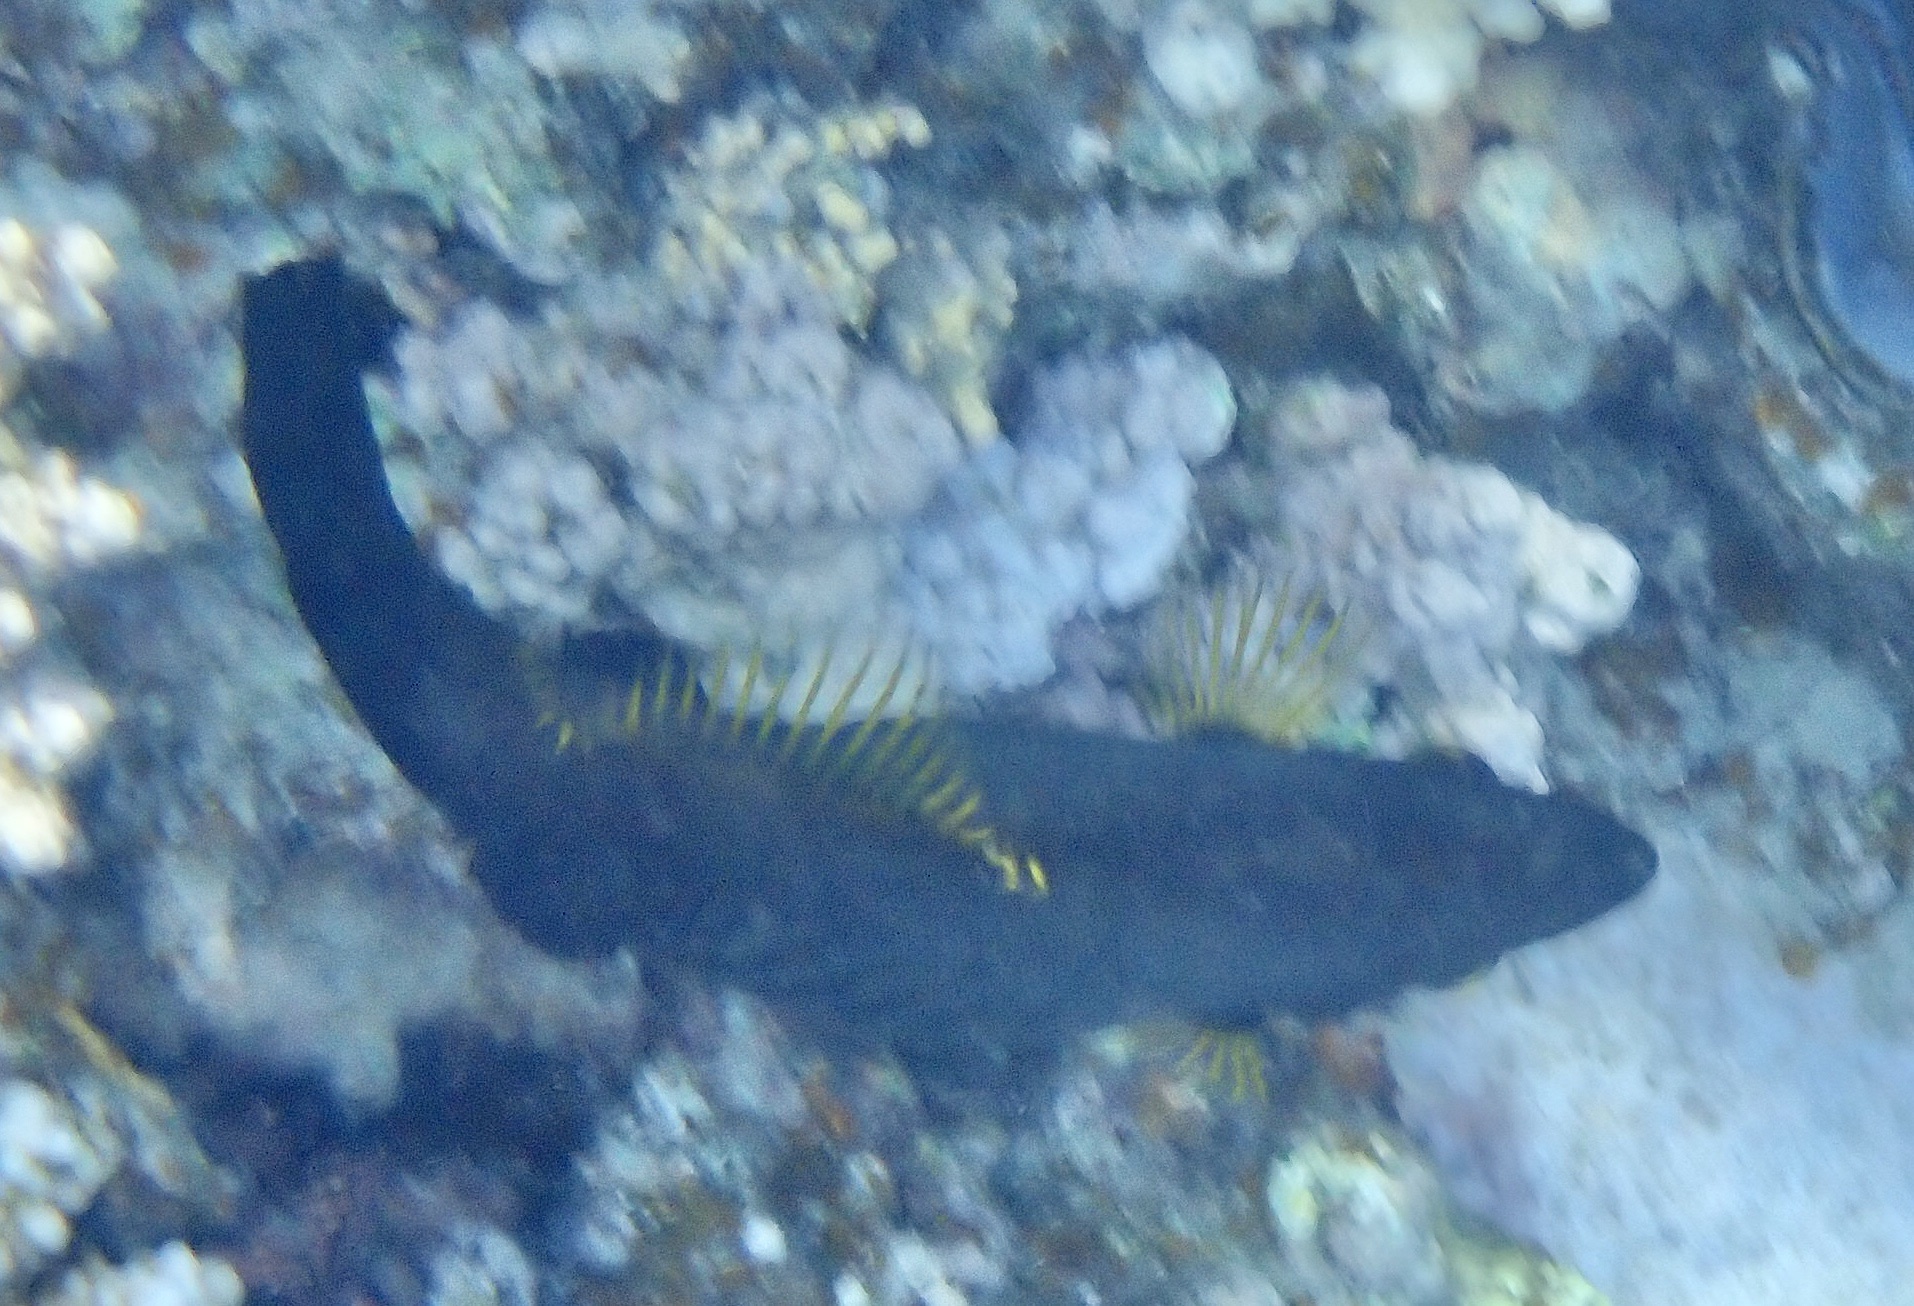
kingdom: Animalia
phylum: Chordata
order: Tetraodontiformes
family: Monacanthidae
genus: Amanses
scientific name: Amanses scopas
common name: Broom filefish
